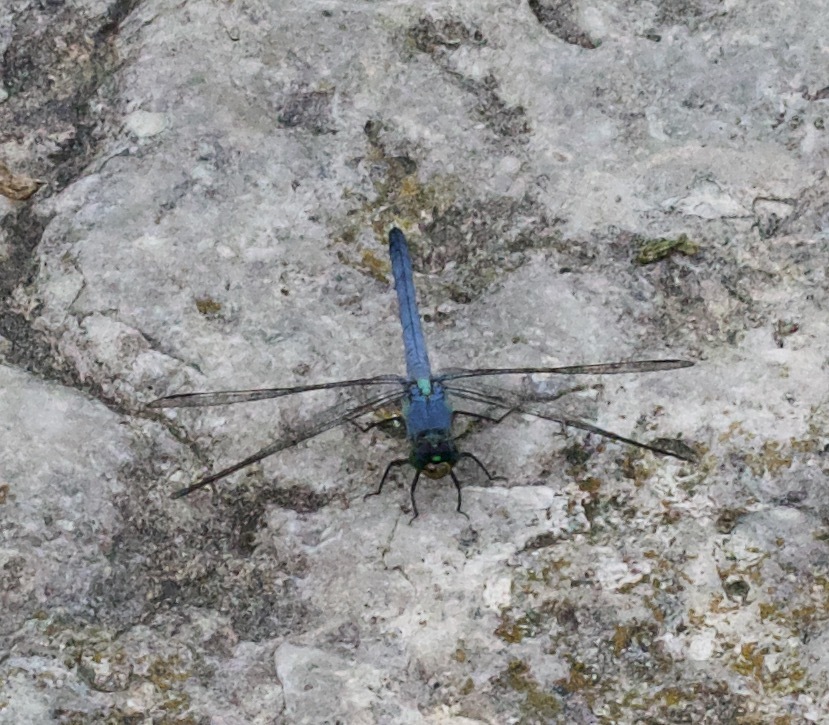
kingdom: Animalia
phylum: Arthropoda
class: Insecta
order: Odonata
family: Libellulidae
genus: Erythemis
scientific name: Erythemis simplicicollis
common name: Eastern pondhawk
